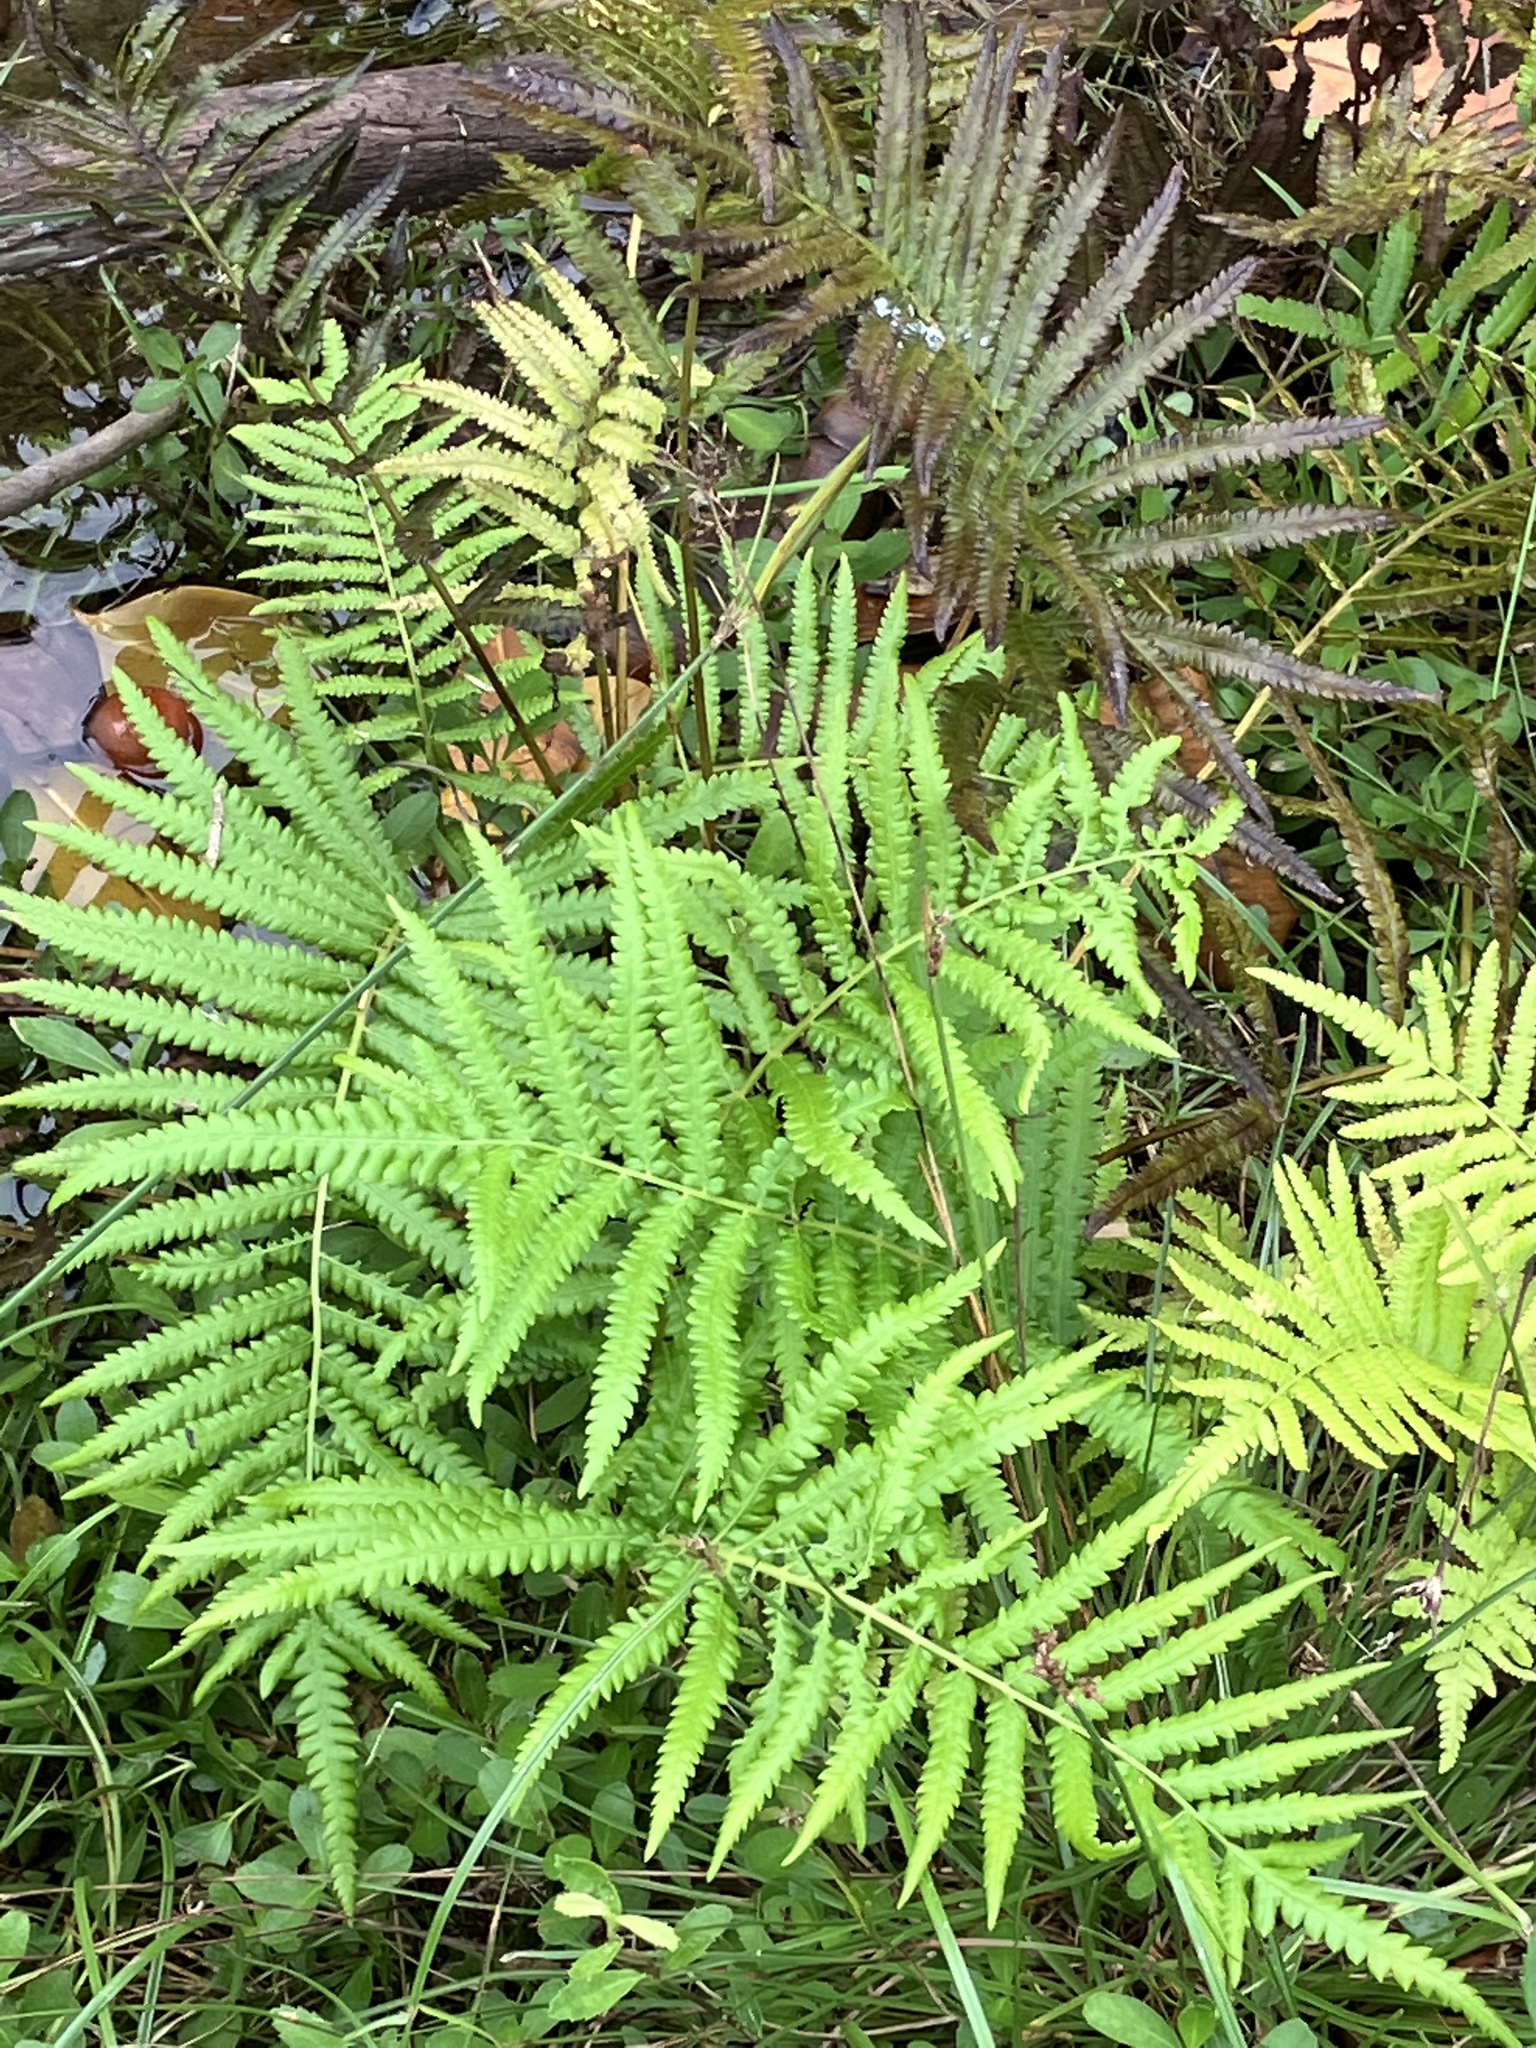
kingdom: Plantae
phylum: Tracheophyta
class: Polypodiopsida
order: Polypodiales
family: Thelypteridaceae
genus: Cyclosorus
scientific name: Cyclosorus interruptus
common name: Neke fern
